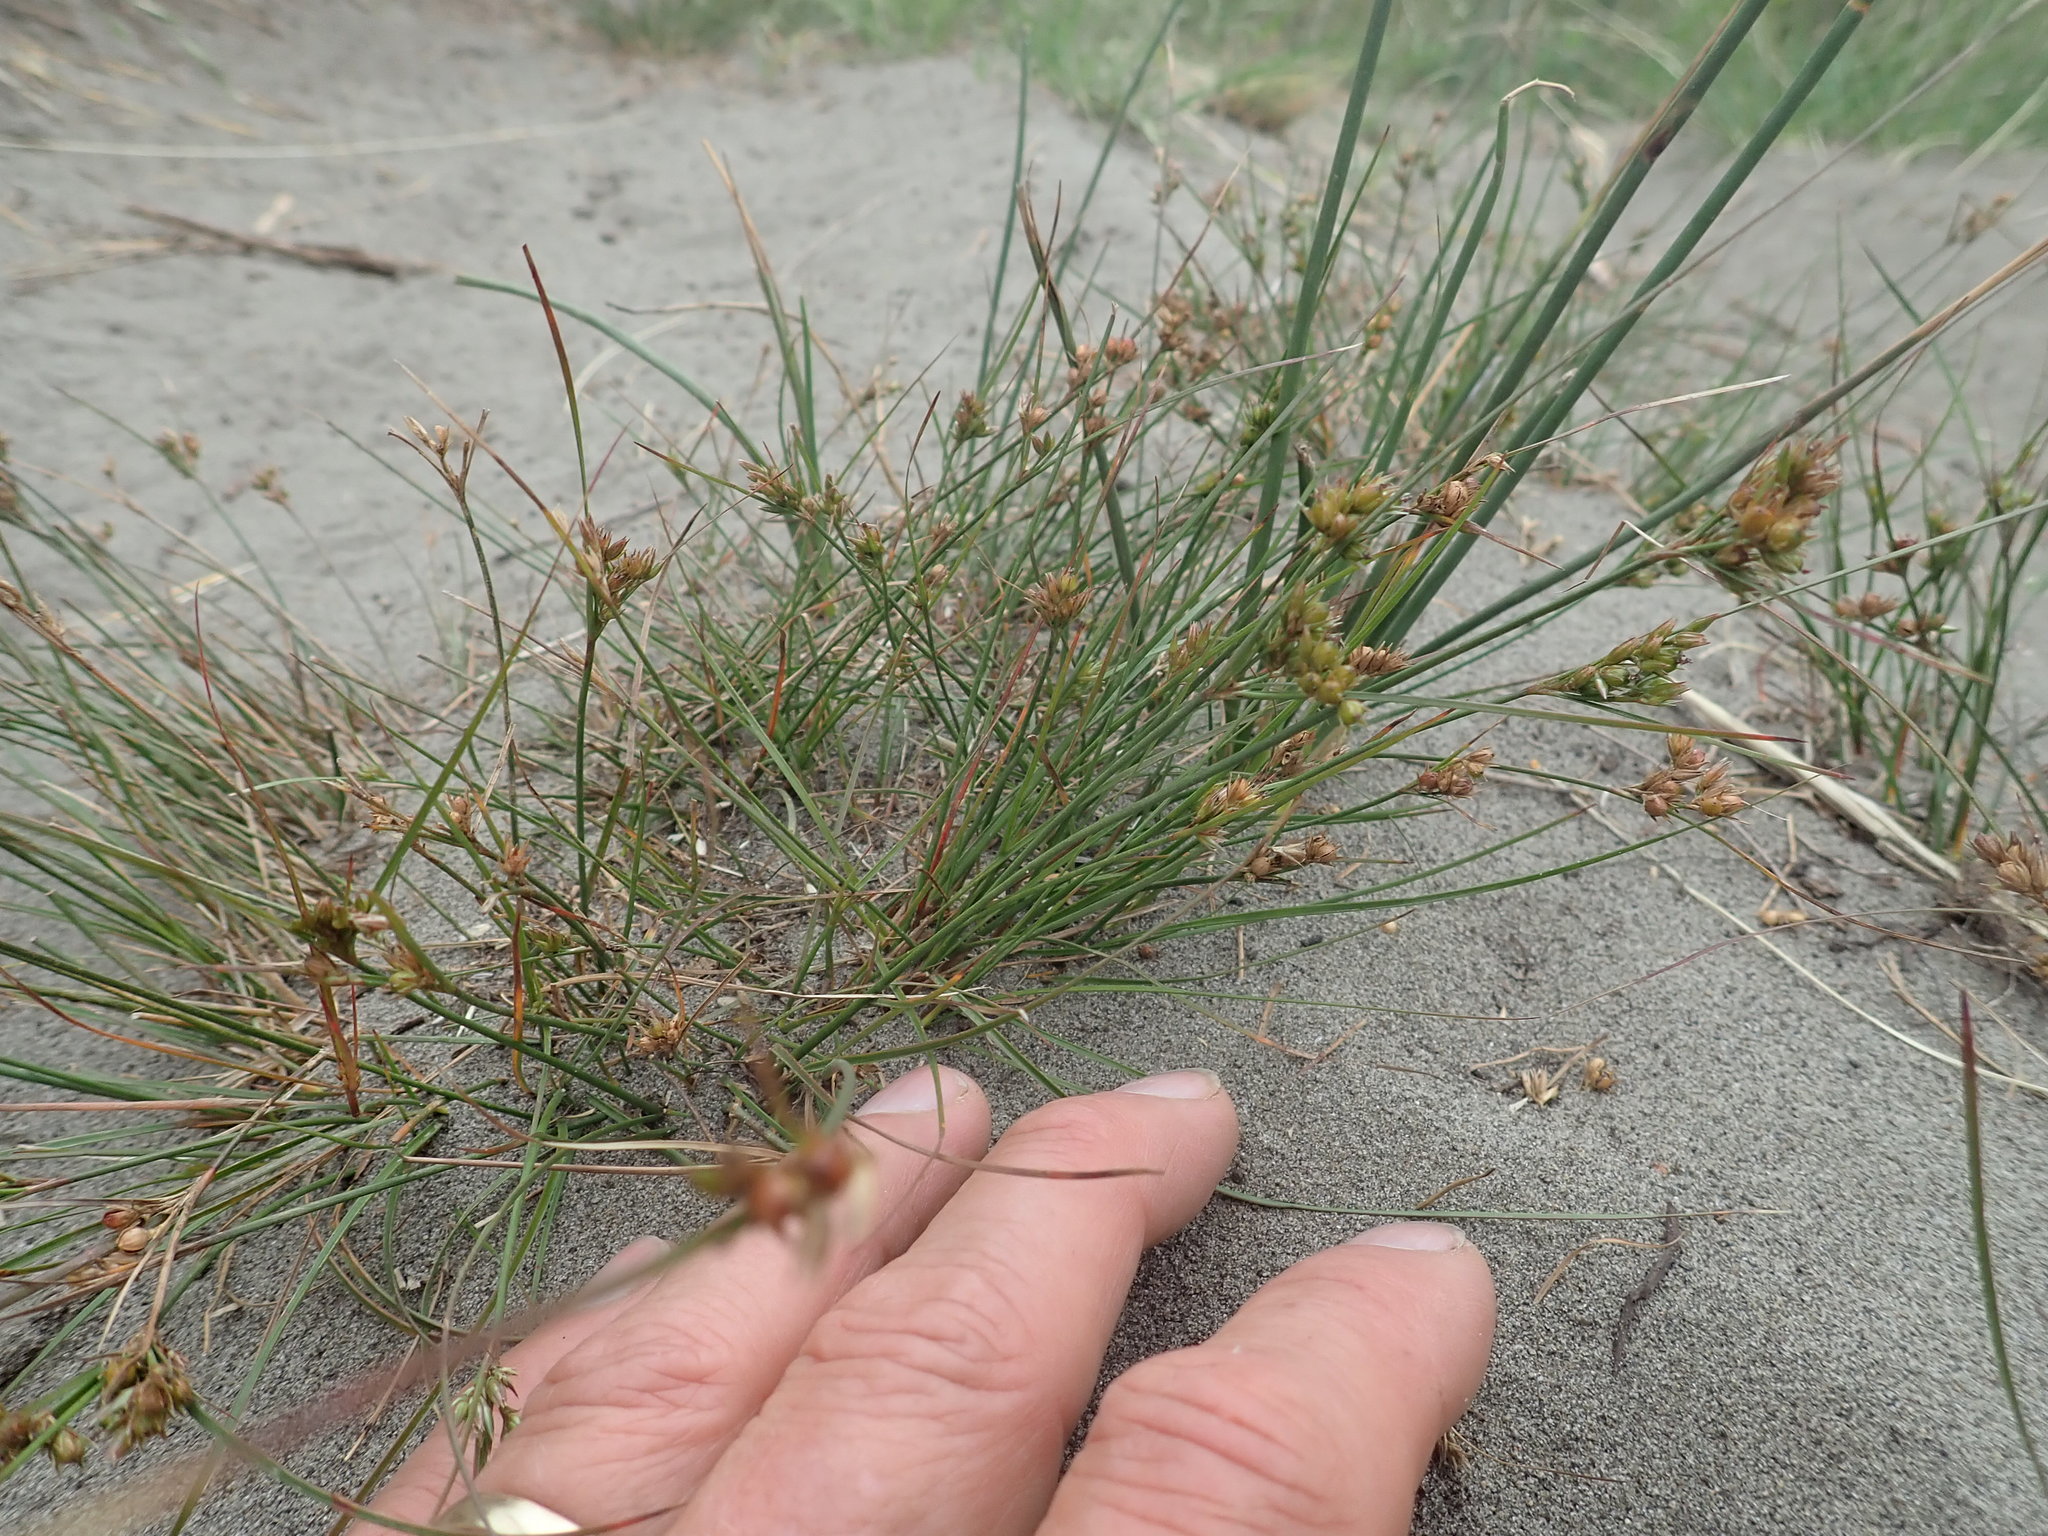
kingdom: Plantae
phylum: Tracheophyta
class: Liliopsida
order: Poales
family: Juncaceae
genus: Juncus
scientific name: Juncus tenuis
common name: Slender rush
